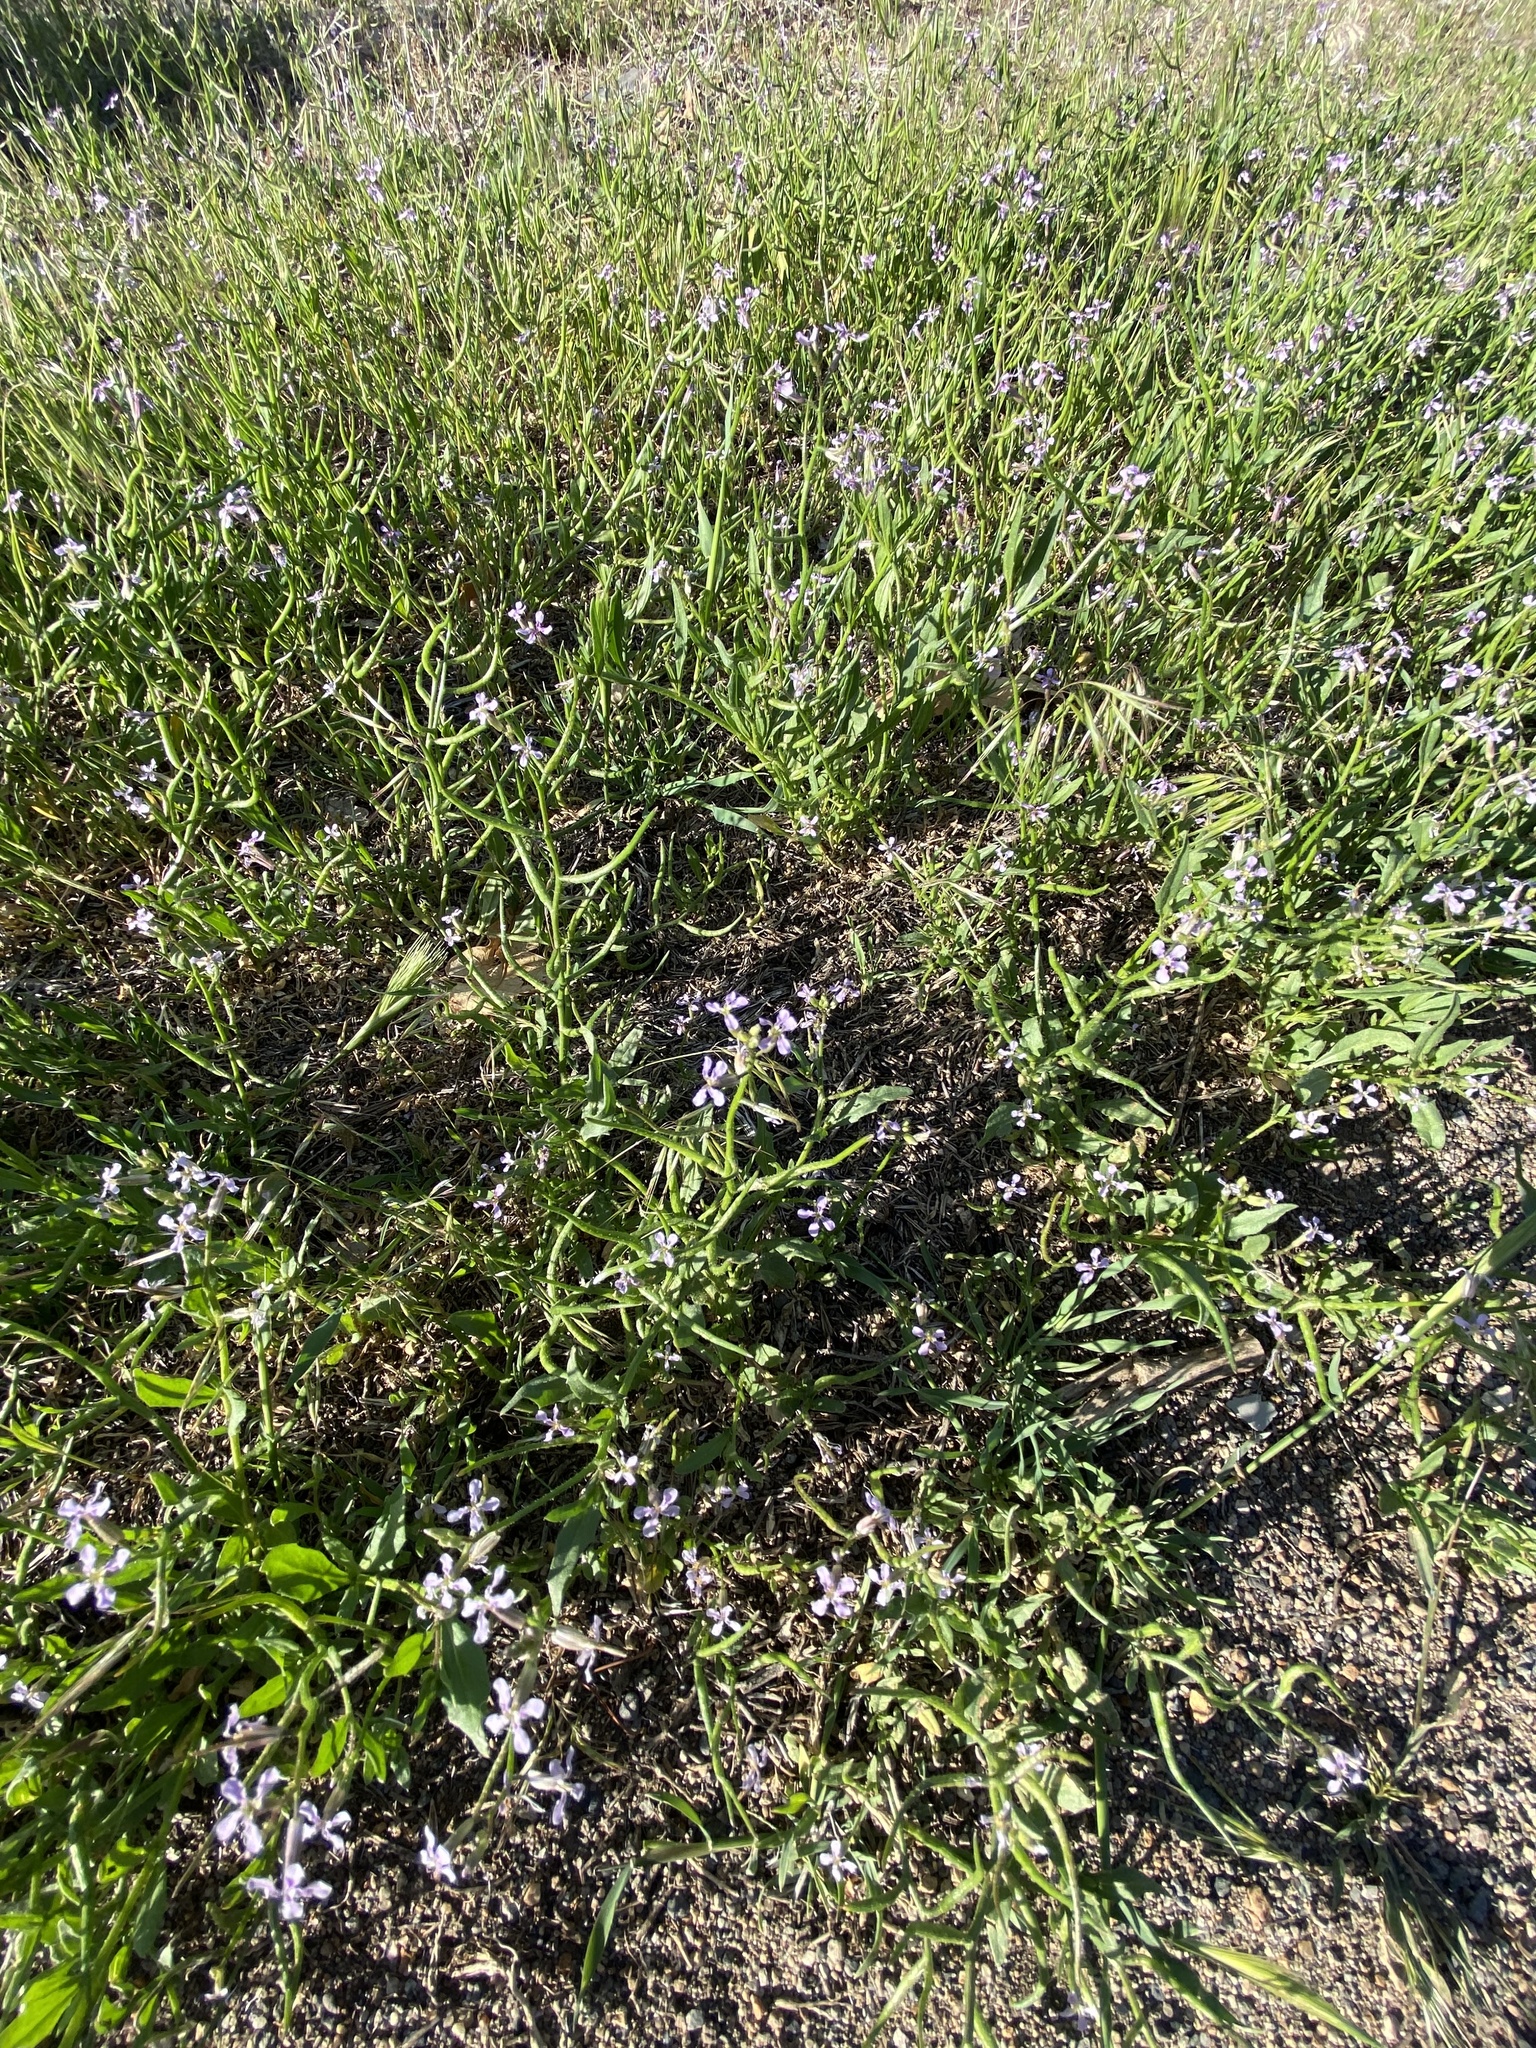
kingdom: Plantae
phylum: Tracheophyta
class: Magnoliopsida
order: Brassicales
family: Brassicaceae
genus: Chorispora
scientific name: Chorispora tenella
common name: Crossflower
